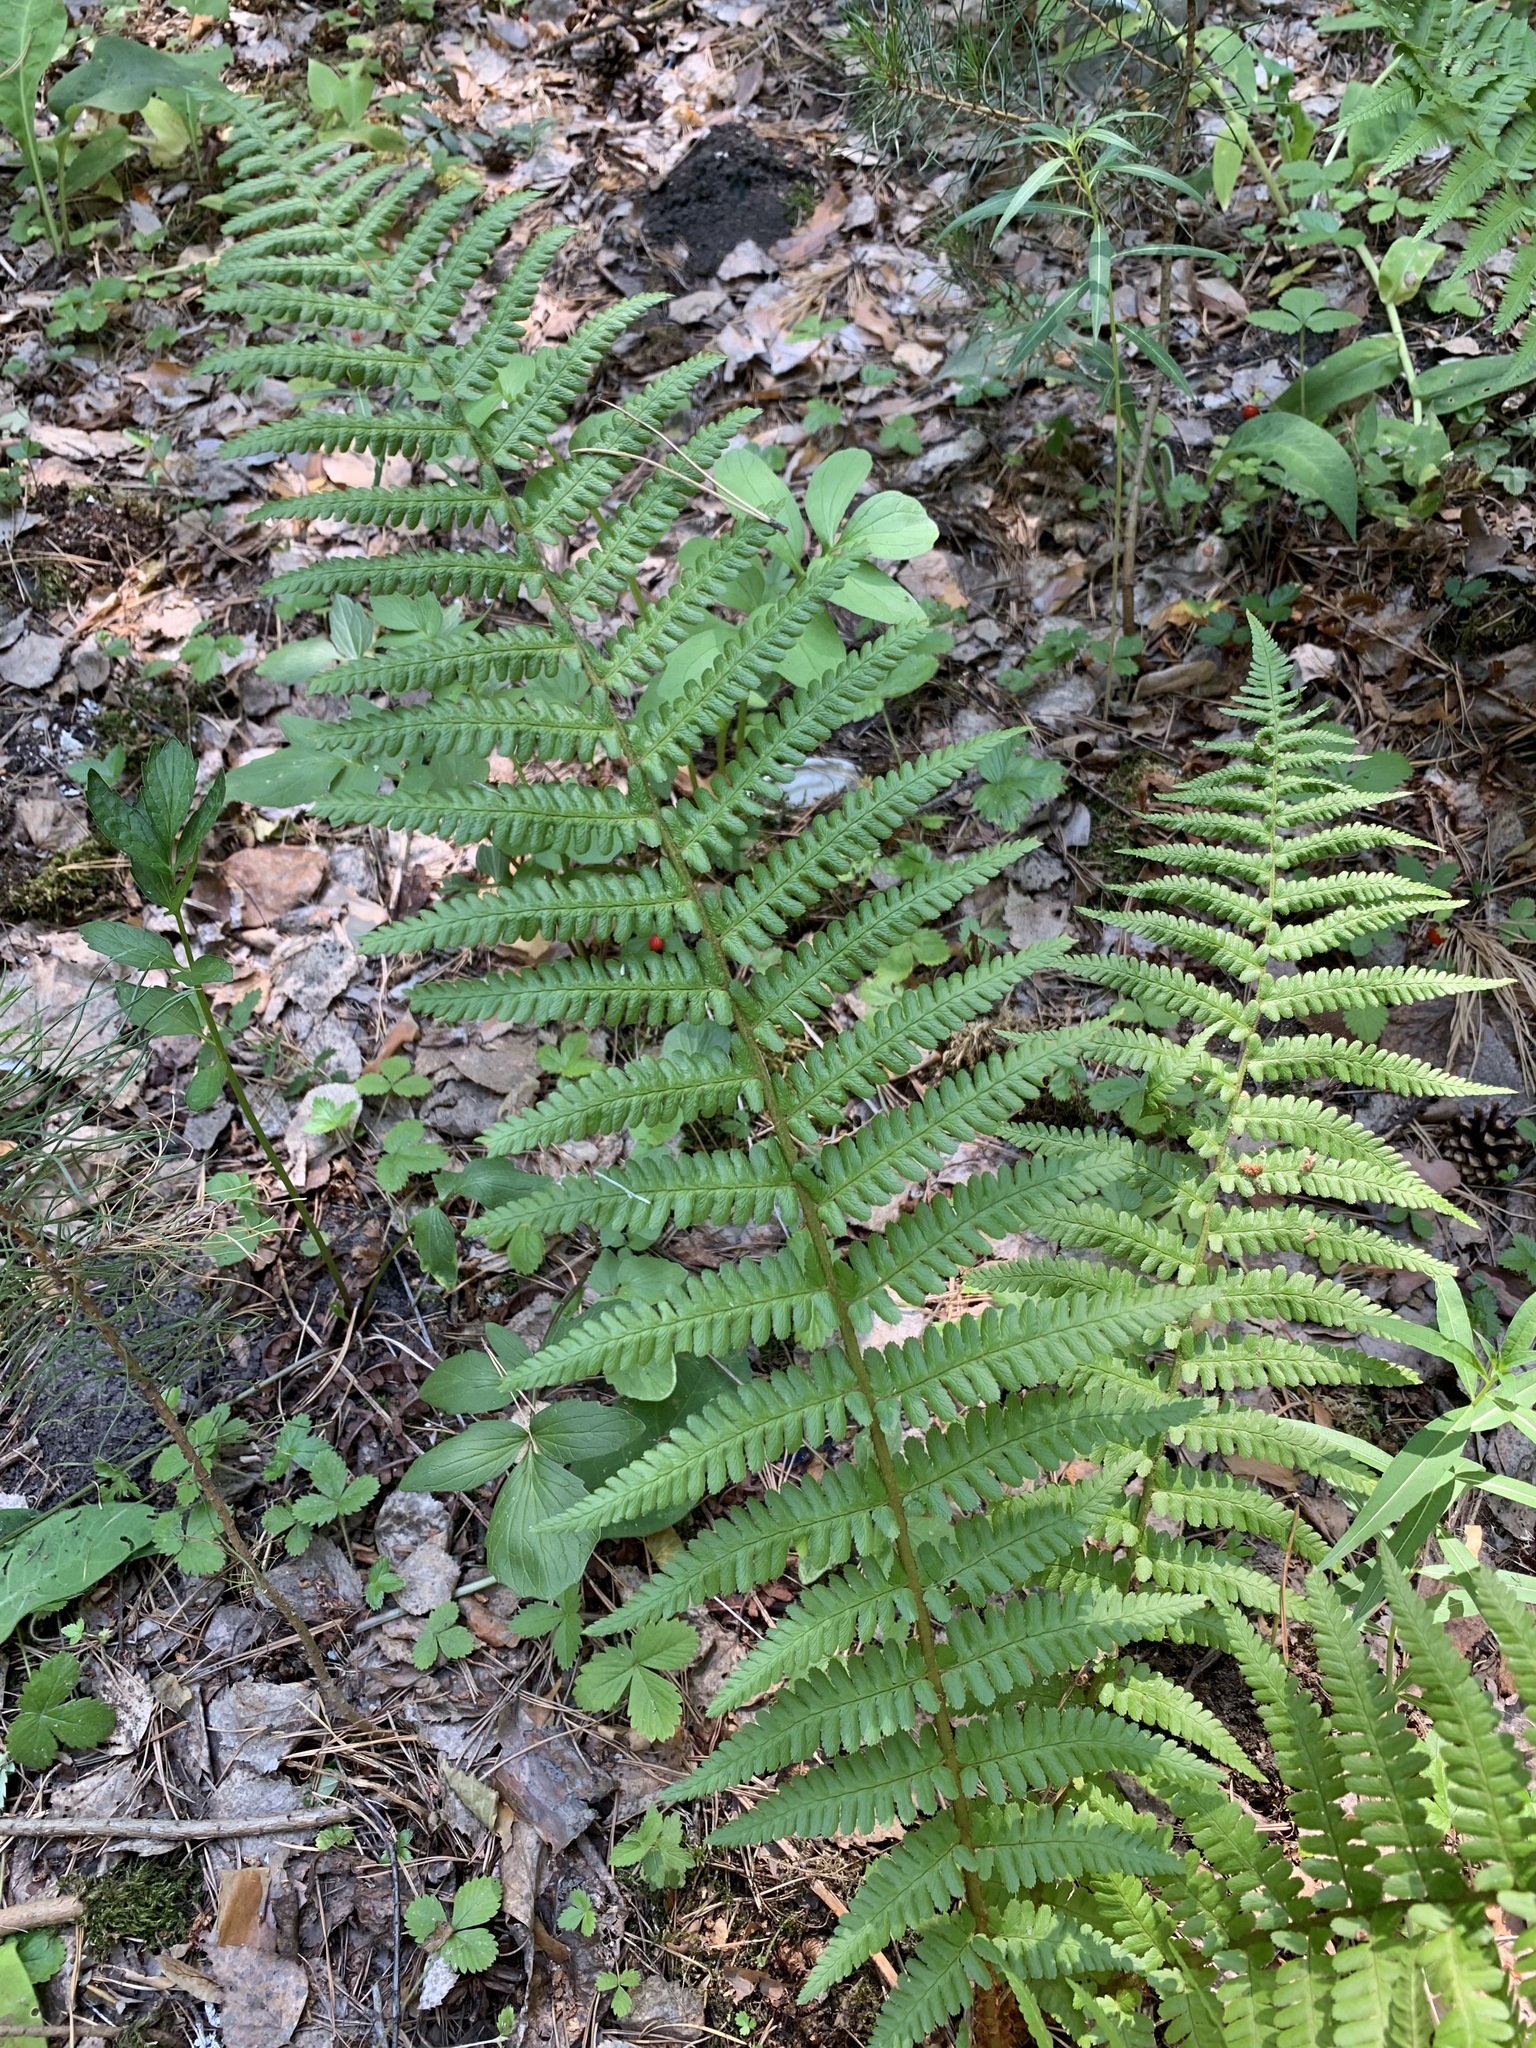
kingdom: Plantae
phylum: Tracheophyta
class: Polypodiopsida
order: Polypodiales
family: Dryopteridaceae
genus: Dryopteris
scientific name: Dryopteris filix-mas
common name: Male fern
